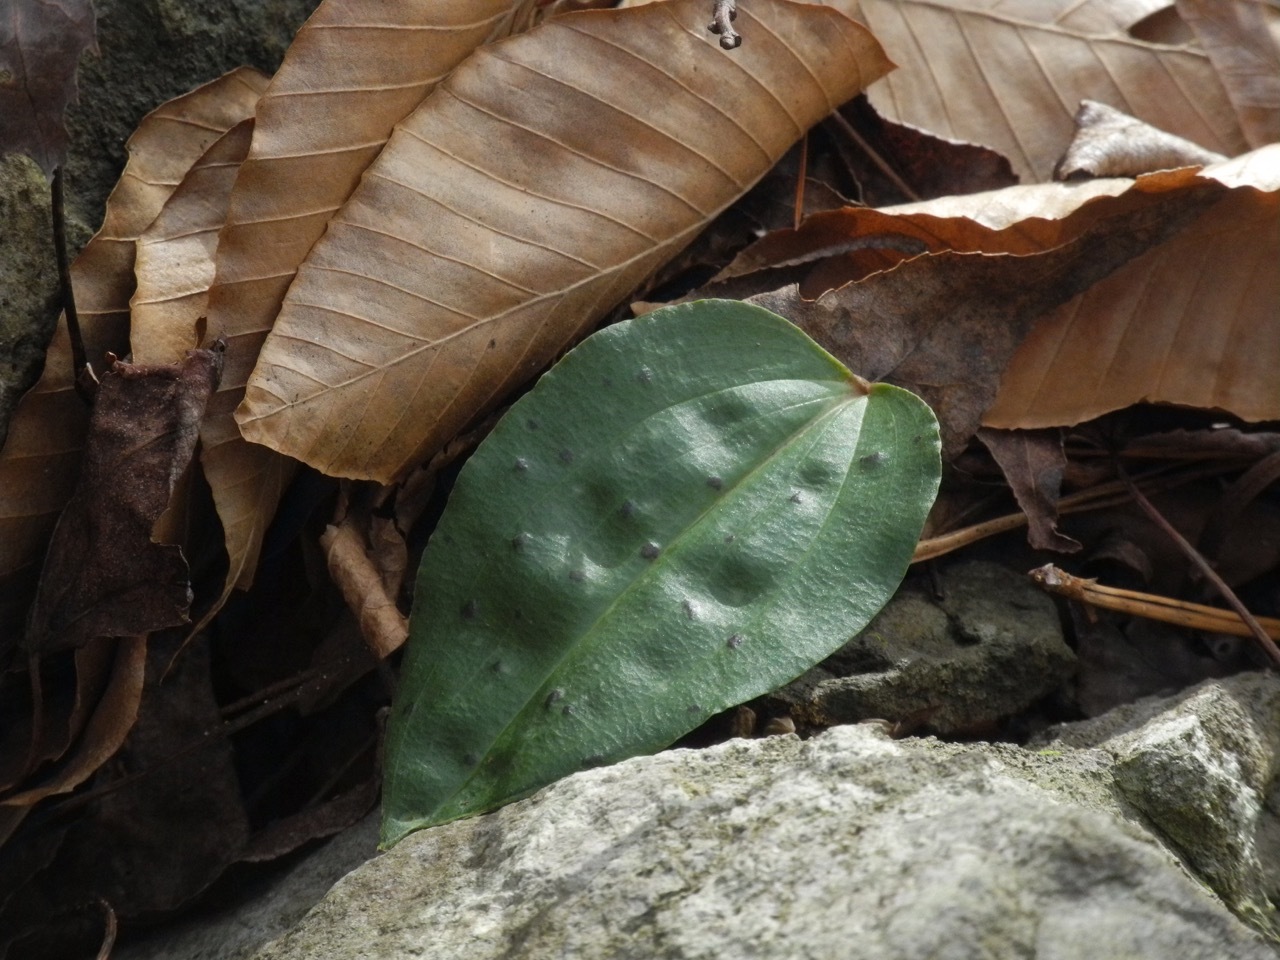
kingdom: Plantae
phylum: Tracheophyta
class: Liliopsida
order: Asparagales
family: Orchidaceae
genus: Tipularia
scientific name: Tipularia discolor
